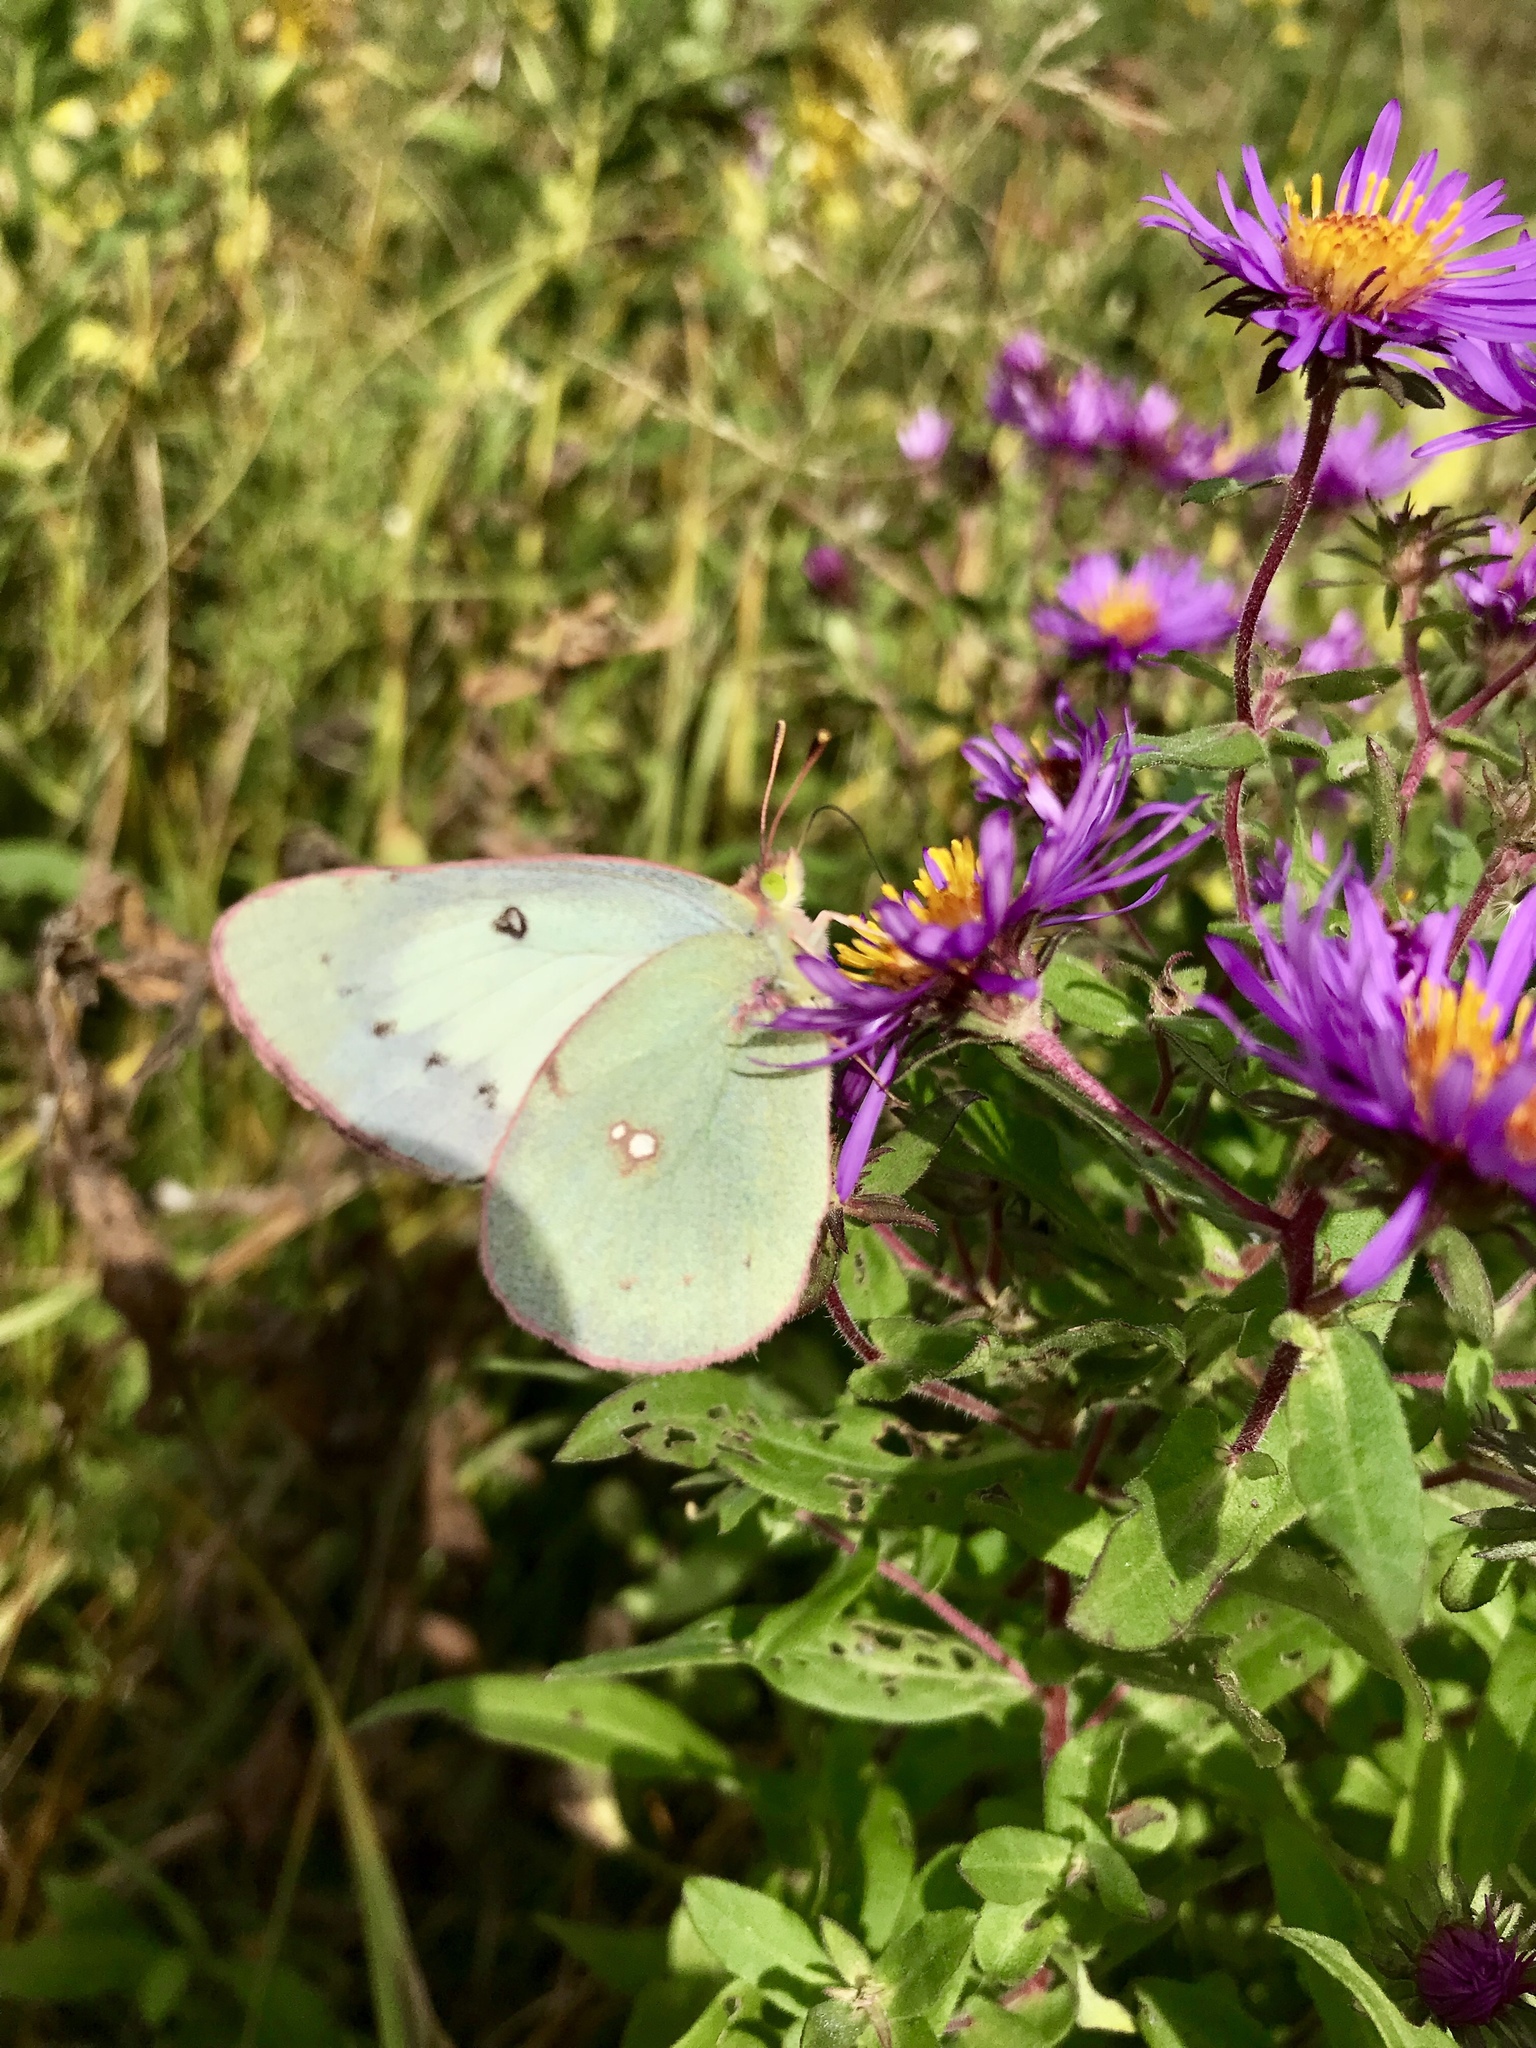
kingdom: Animalia
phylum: Arthropoda
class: Insecta
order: Lepidoptera
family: Pieridae
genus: Colias
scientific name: Colias philodice
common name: Clouded sulphur
